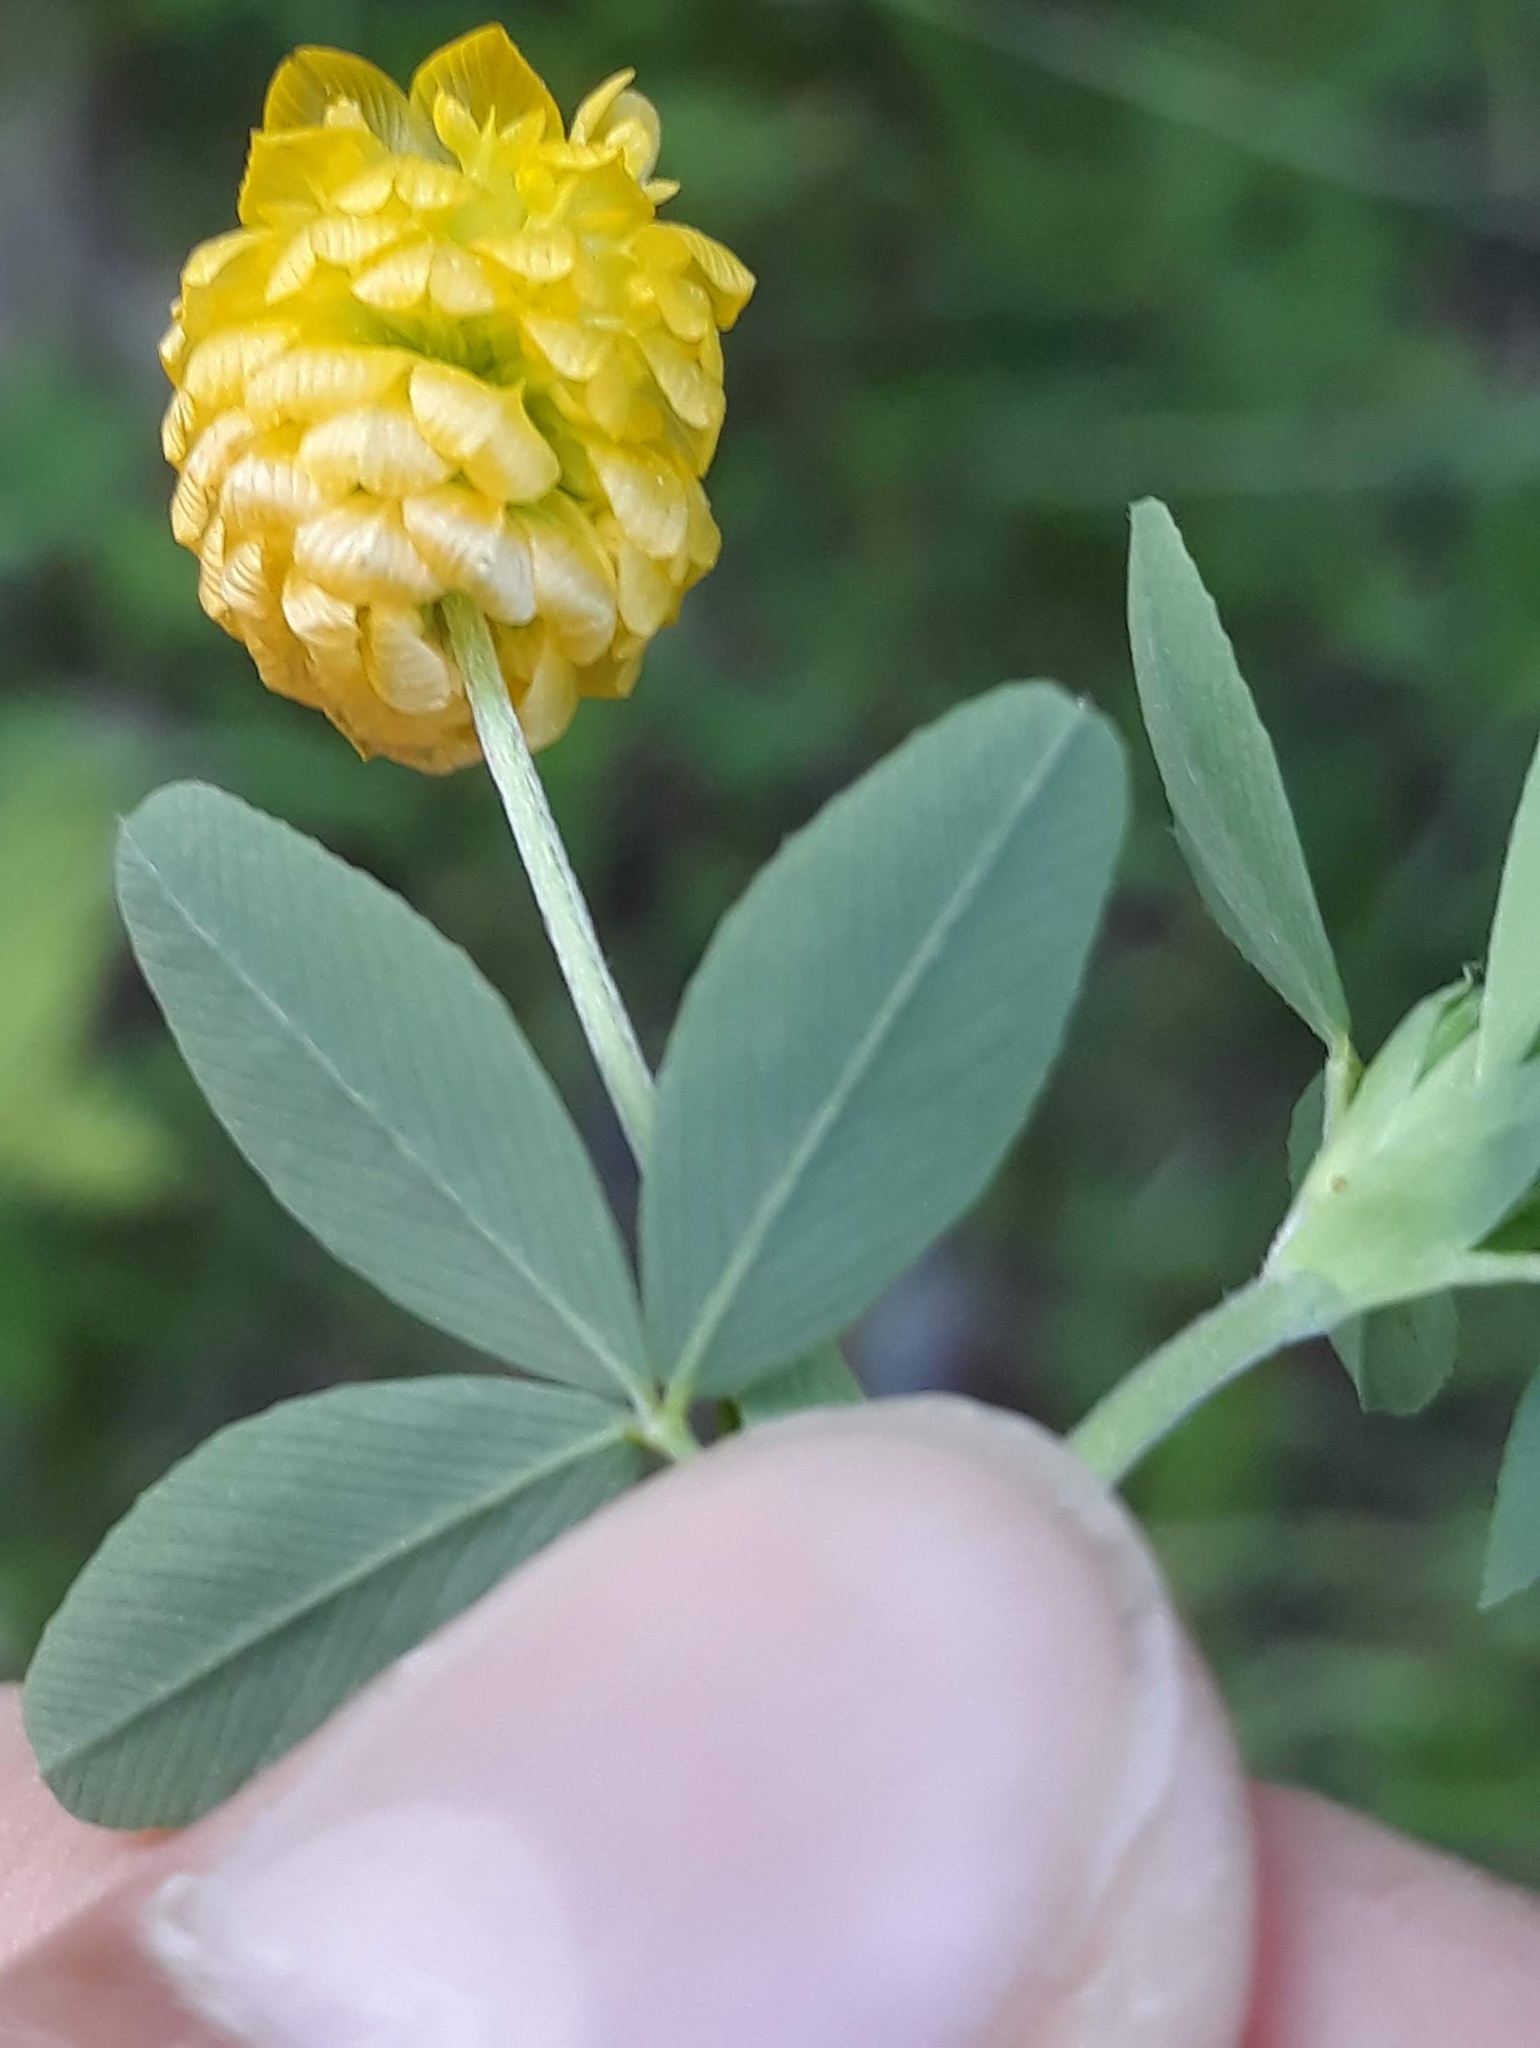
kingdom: Plantae
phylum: Tracheophyta
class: Magnoliopsida
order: Fabales
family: Fabaceae
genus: Trifolium
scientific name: Trifolium aureum
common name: Golden clover
